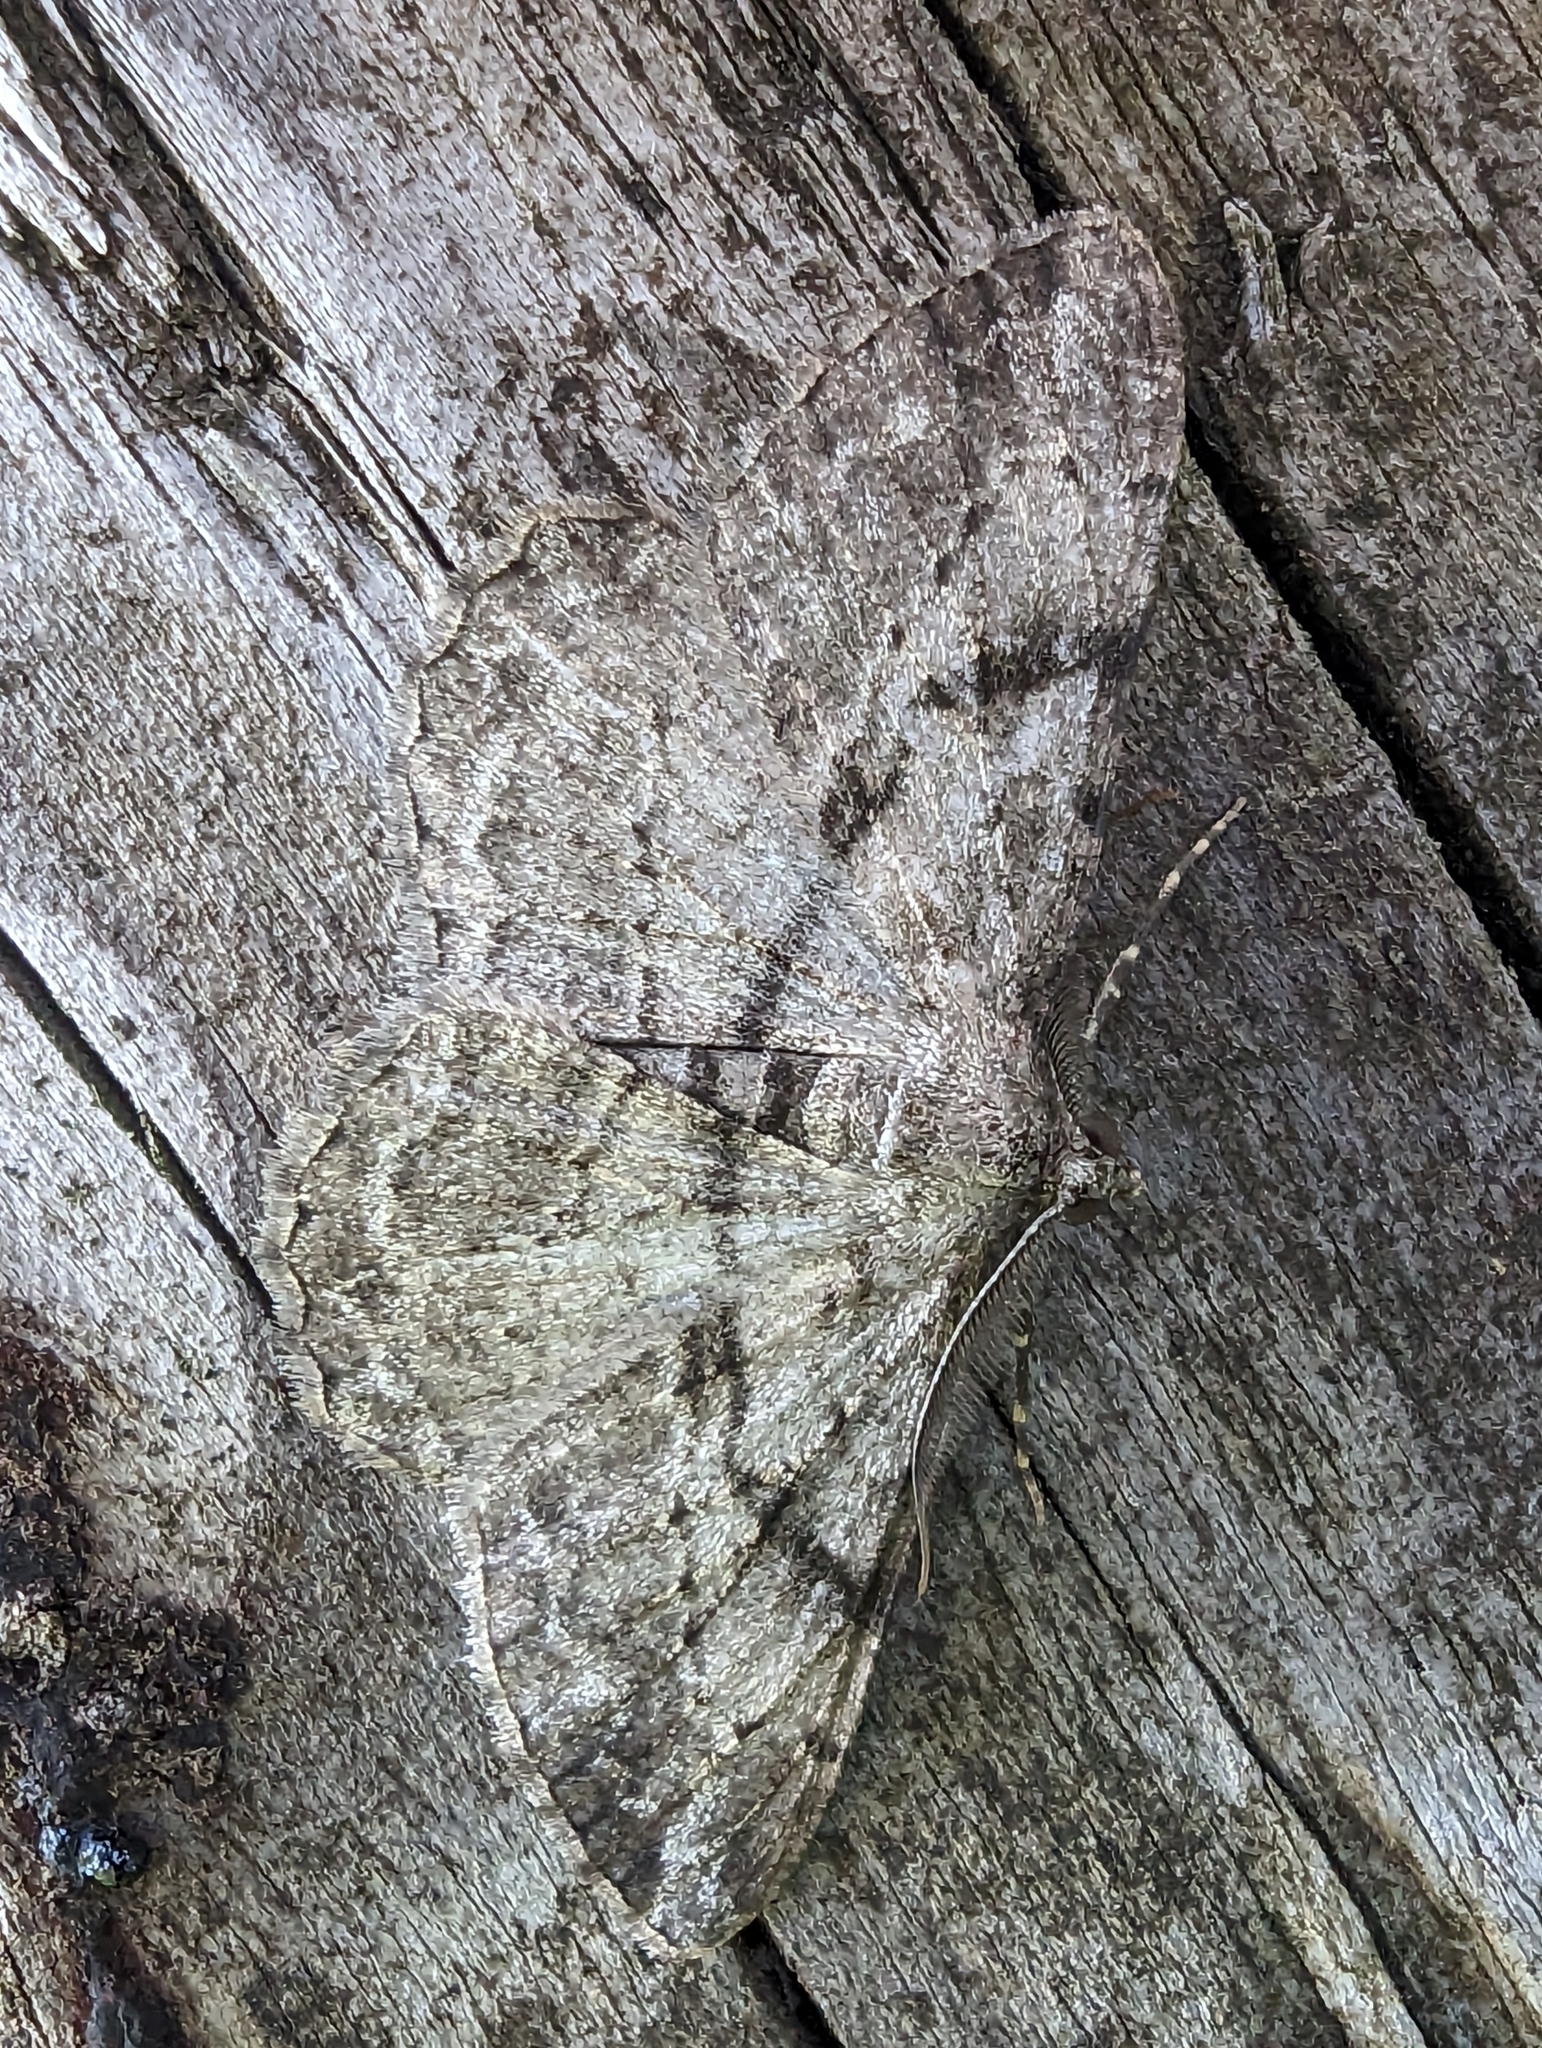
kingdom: Animalia
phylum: Arthropoda
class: Insecta
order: Lepidoptera
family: Geometridae
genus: Peribatodes
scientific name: Peribatodes rhomboidaria
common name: Willow beauty
